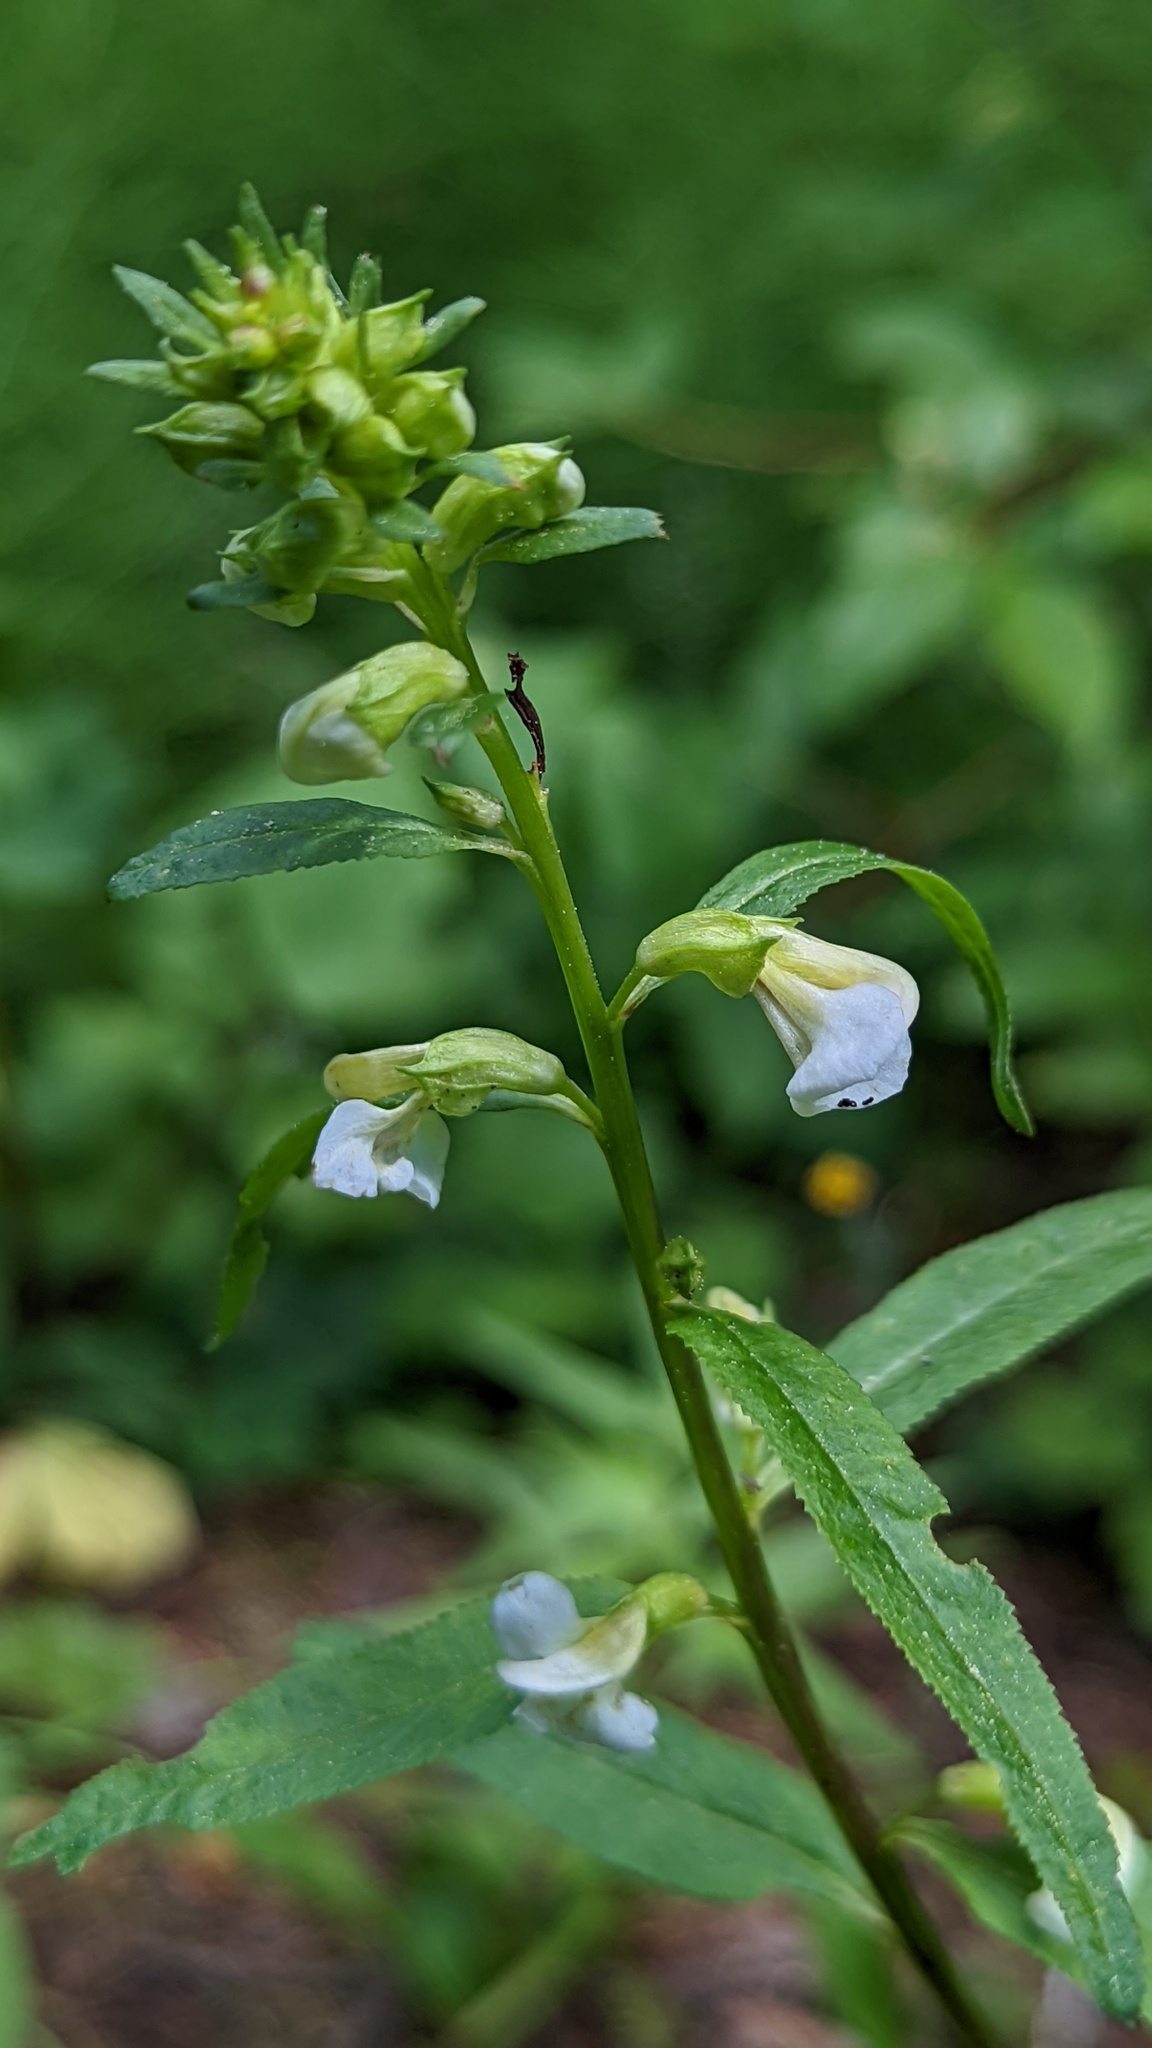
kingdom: Plantae
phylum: Tracheophyta
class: Magnoliopsida
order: Lamiales
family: Orobanchaceae
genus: Pedicularis
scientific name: Pedicularis racemosa
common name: Leafy lousewort
